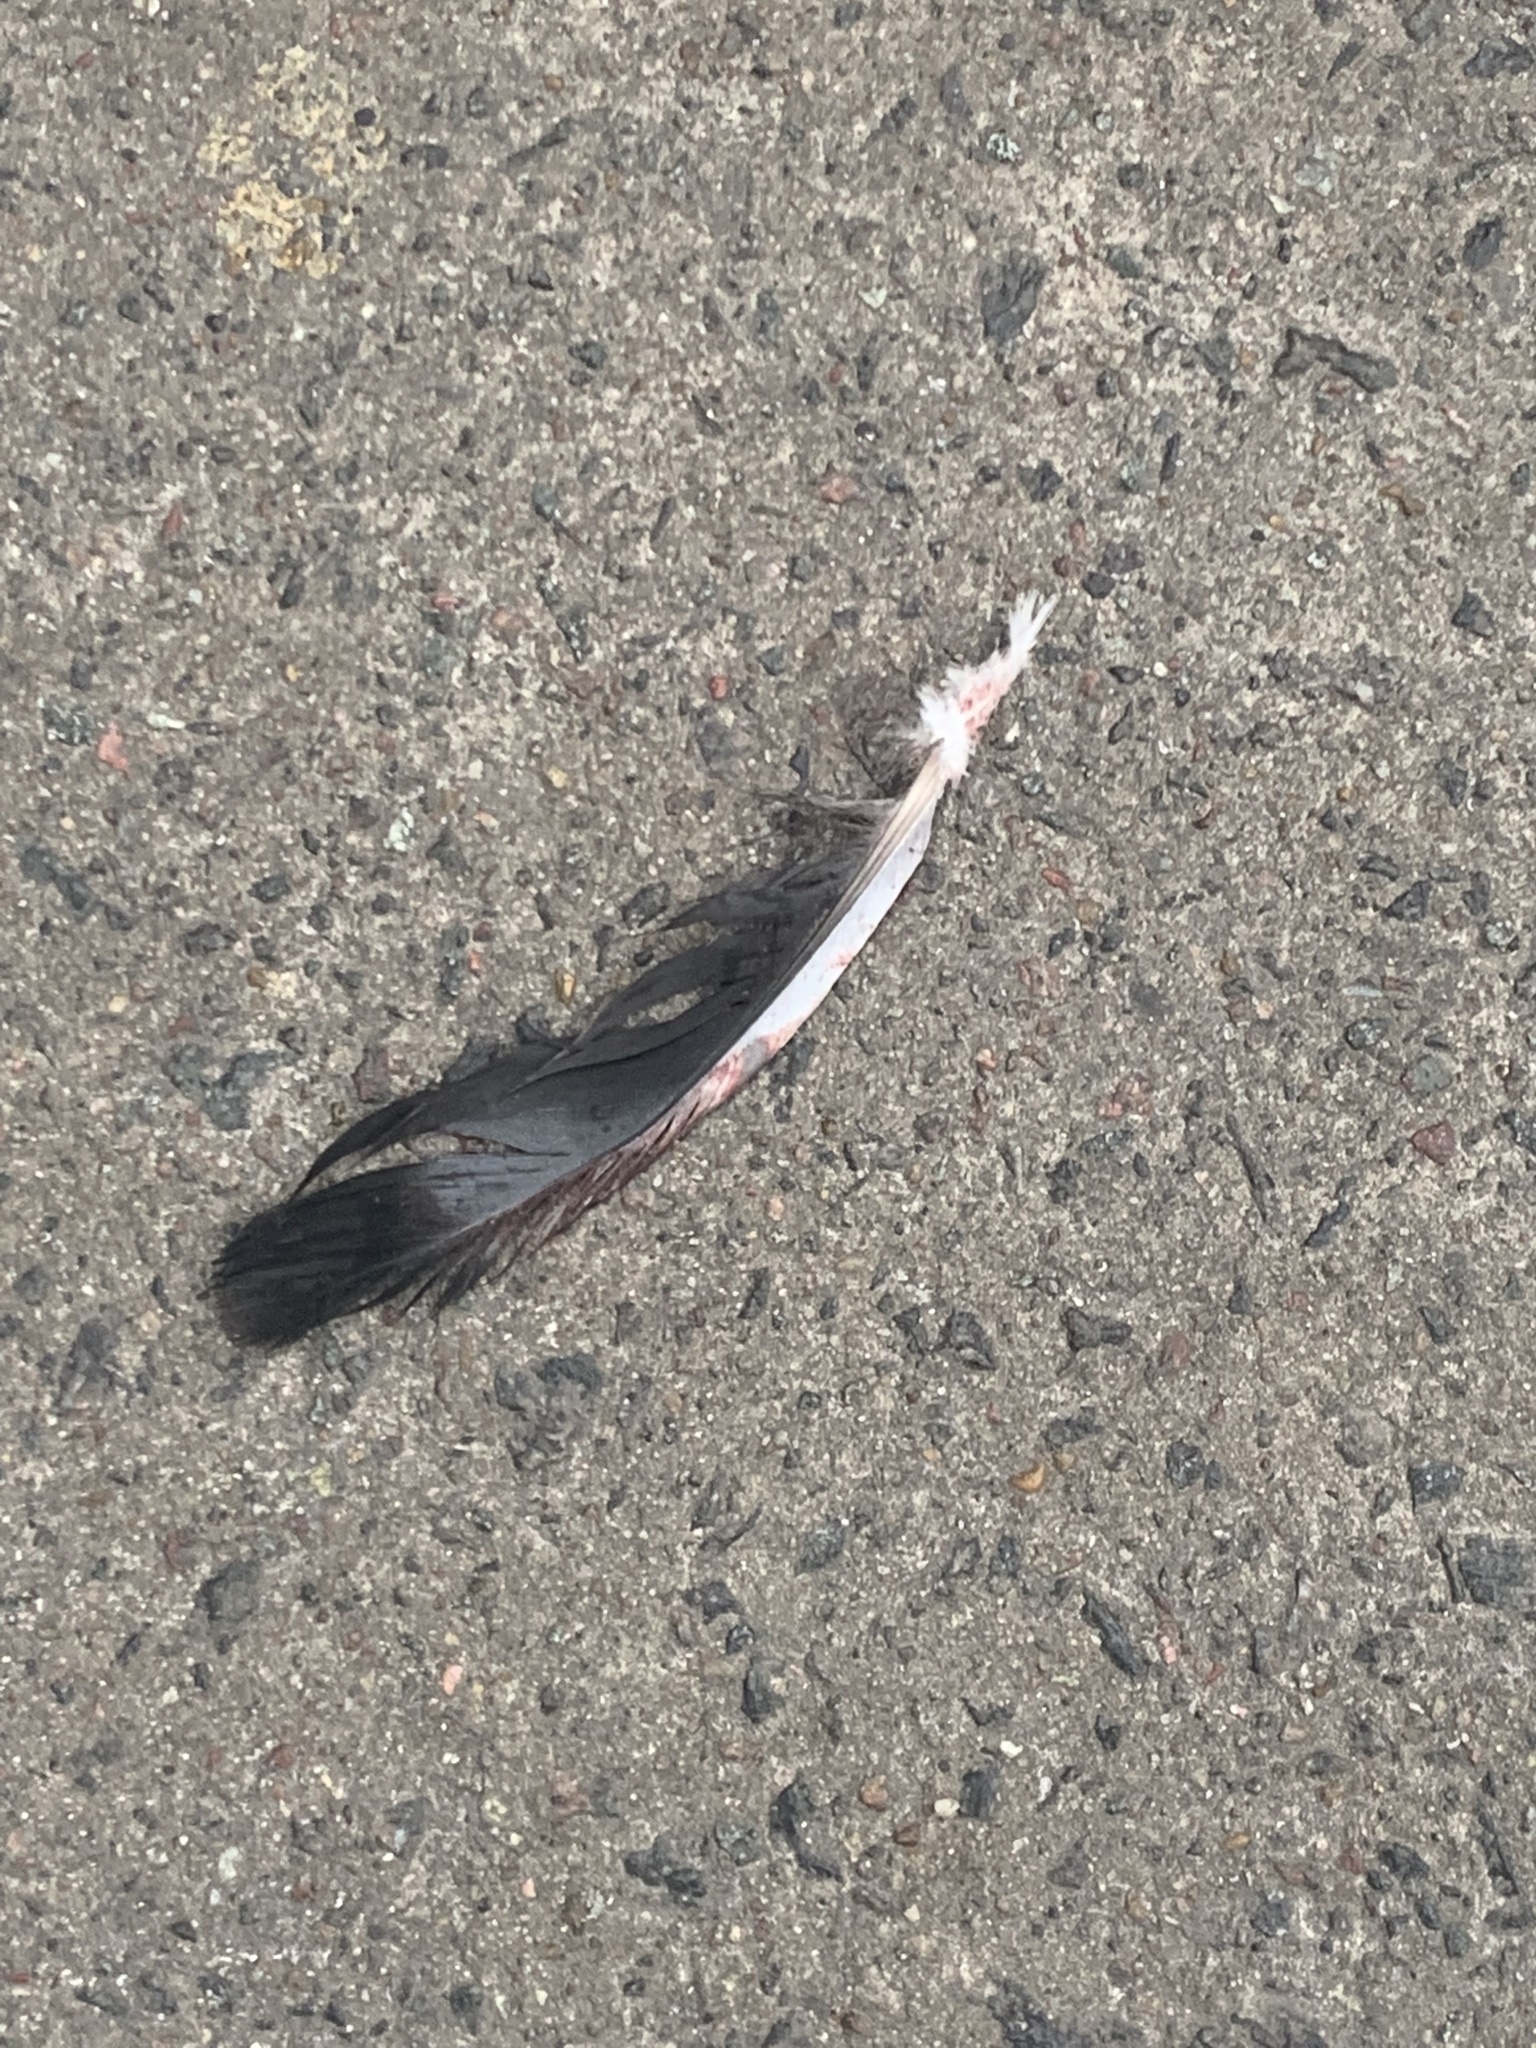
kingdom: Animalia
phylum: Chordata
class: Aves
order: Columbiformes
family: Columbidae
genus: Columba
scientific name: Columba livia
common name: Rock pigeon
